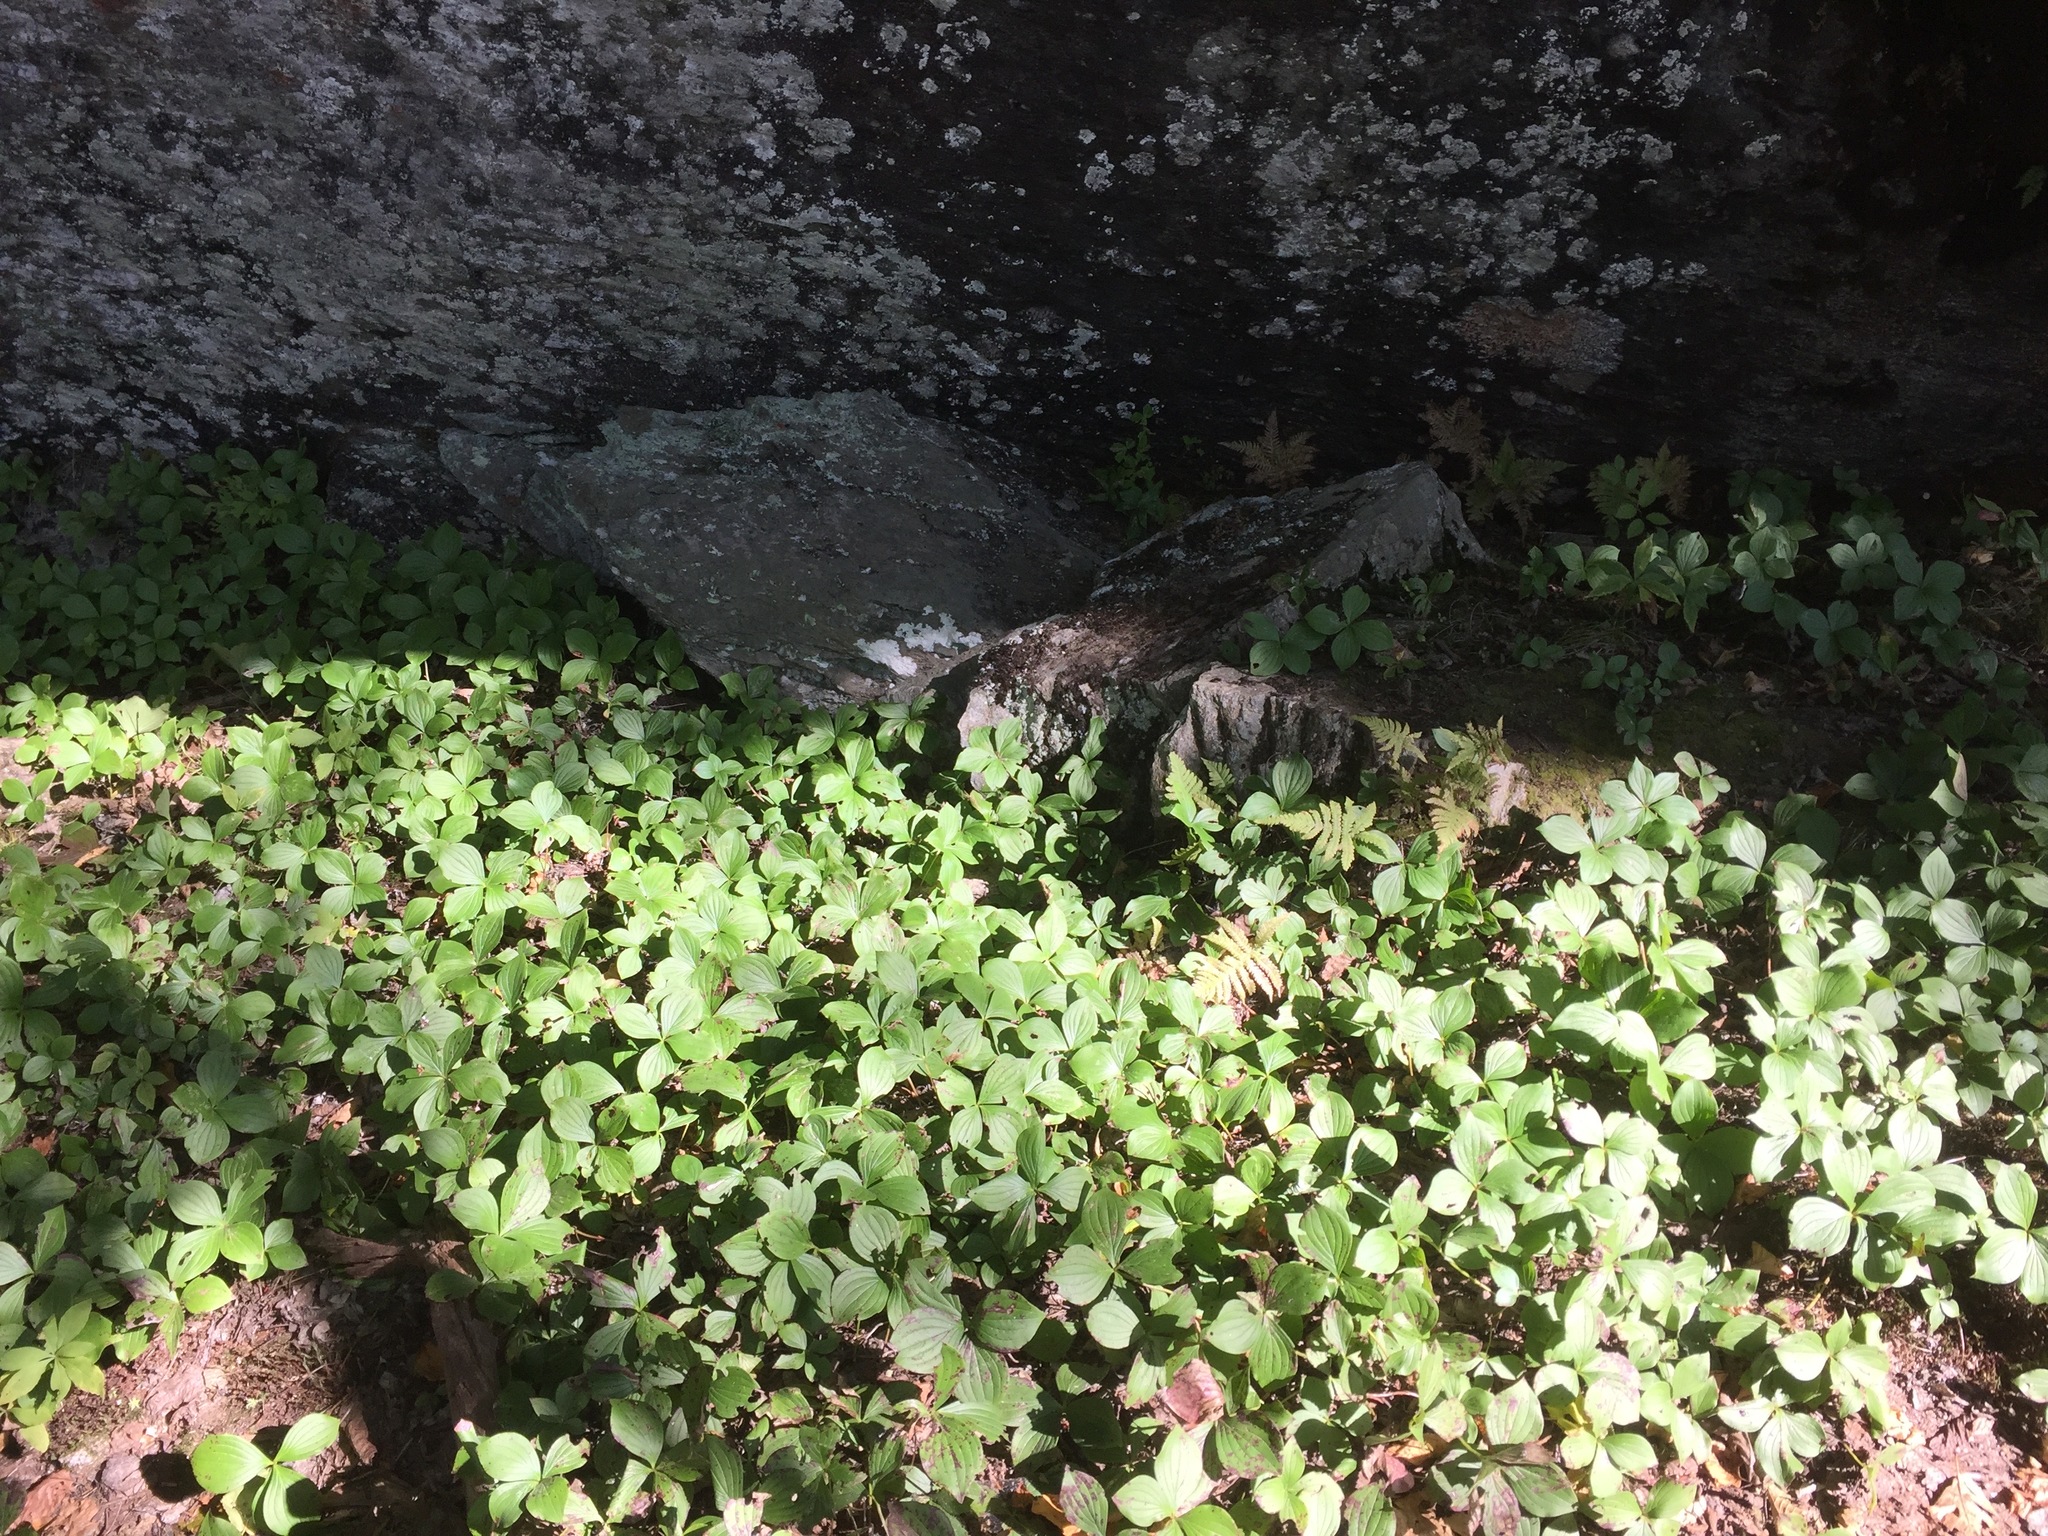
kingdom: Plantae
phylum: Tracheophyta
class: Magnoliopsida
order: Cornales
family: Cornaceae
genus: Cornus
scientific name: Cornus canadensis
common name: Creeping dogwood
